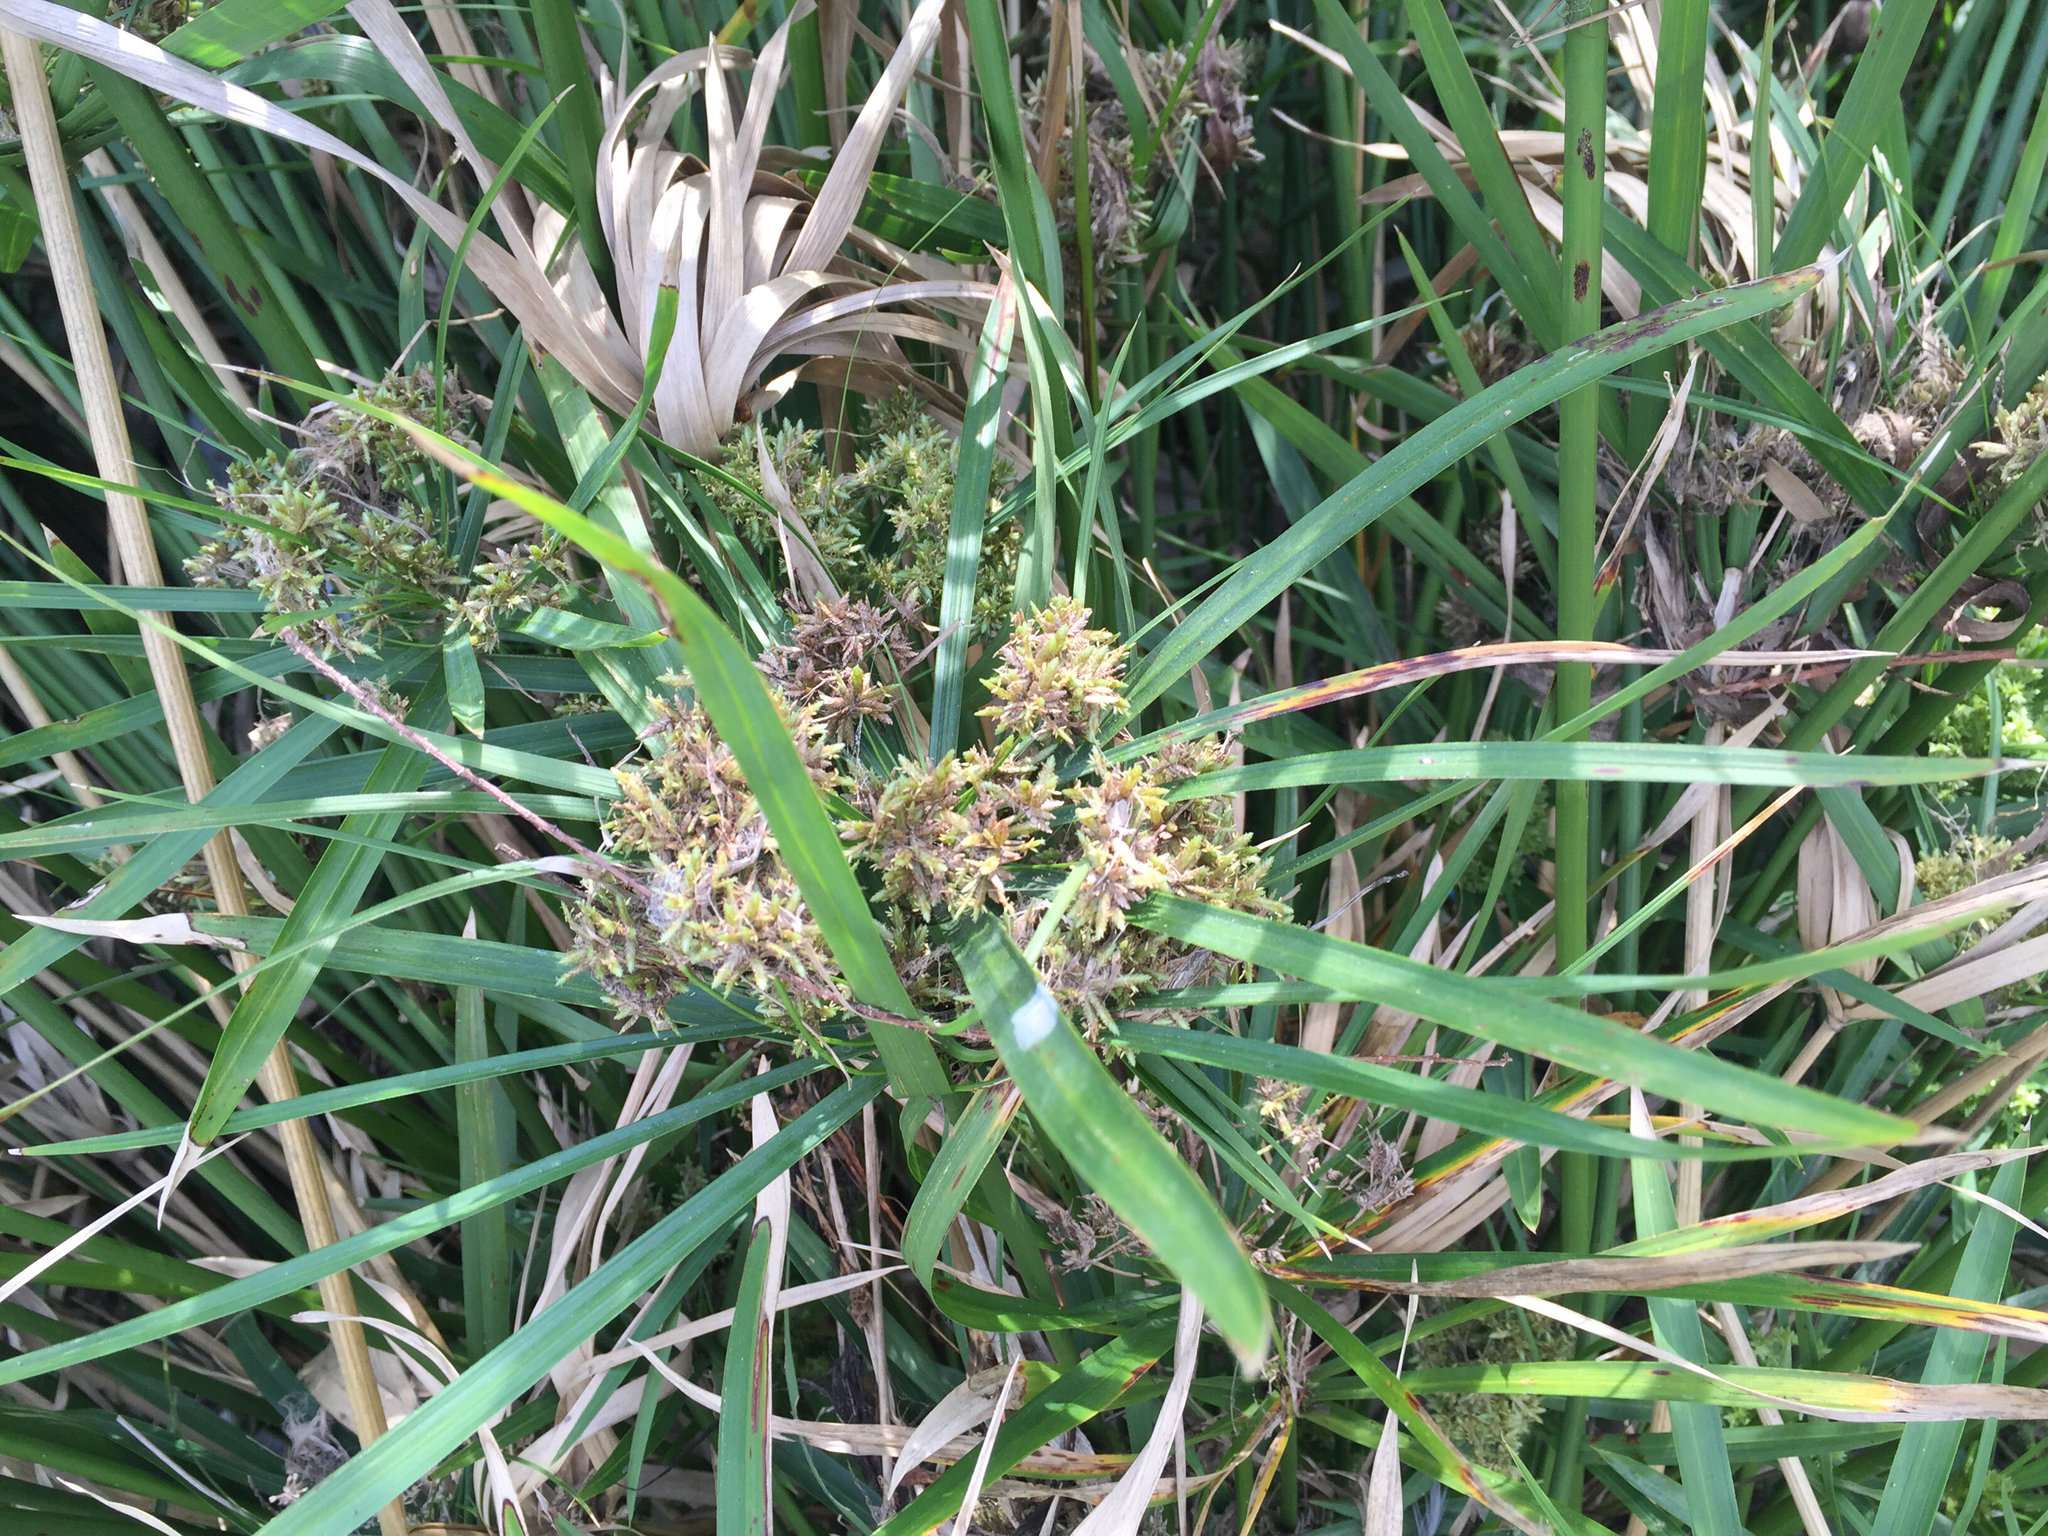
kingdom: Plantae
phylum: Tracheophyta
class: Liliopsida
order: Poales
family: Cyperaceae
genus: Cyperus
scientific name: Cyperus alternifolius
